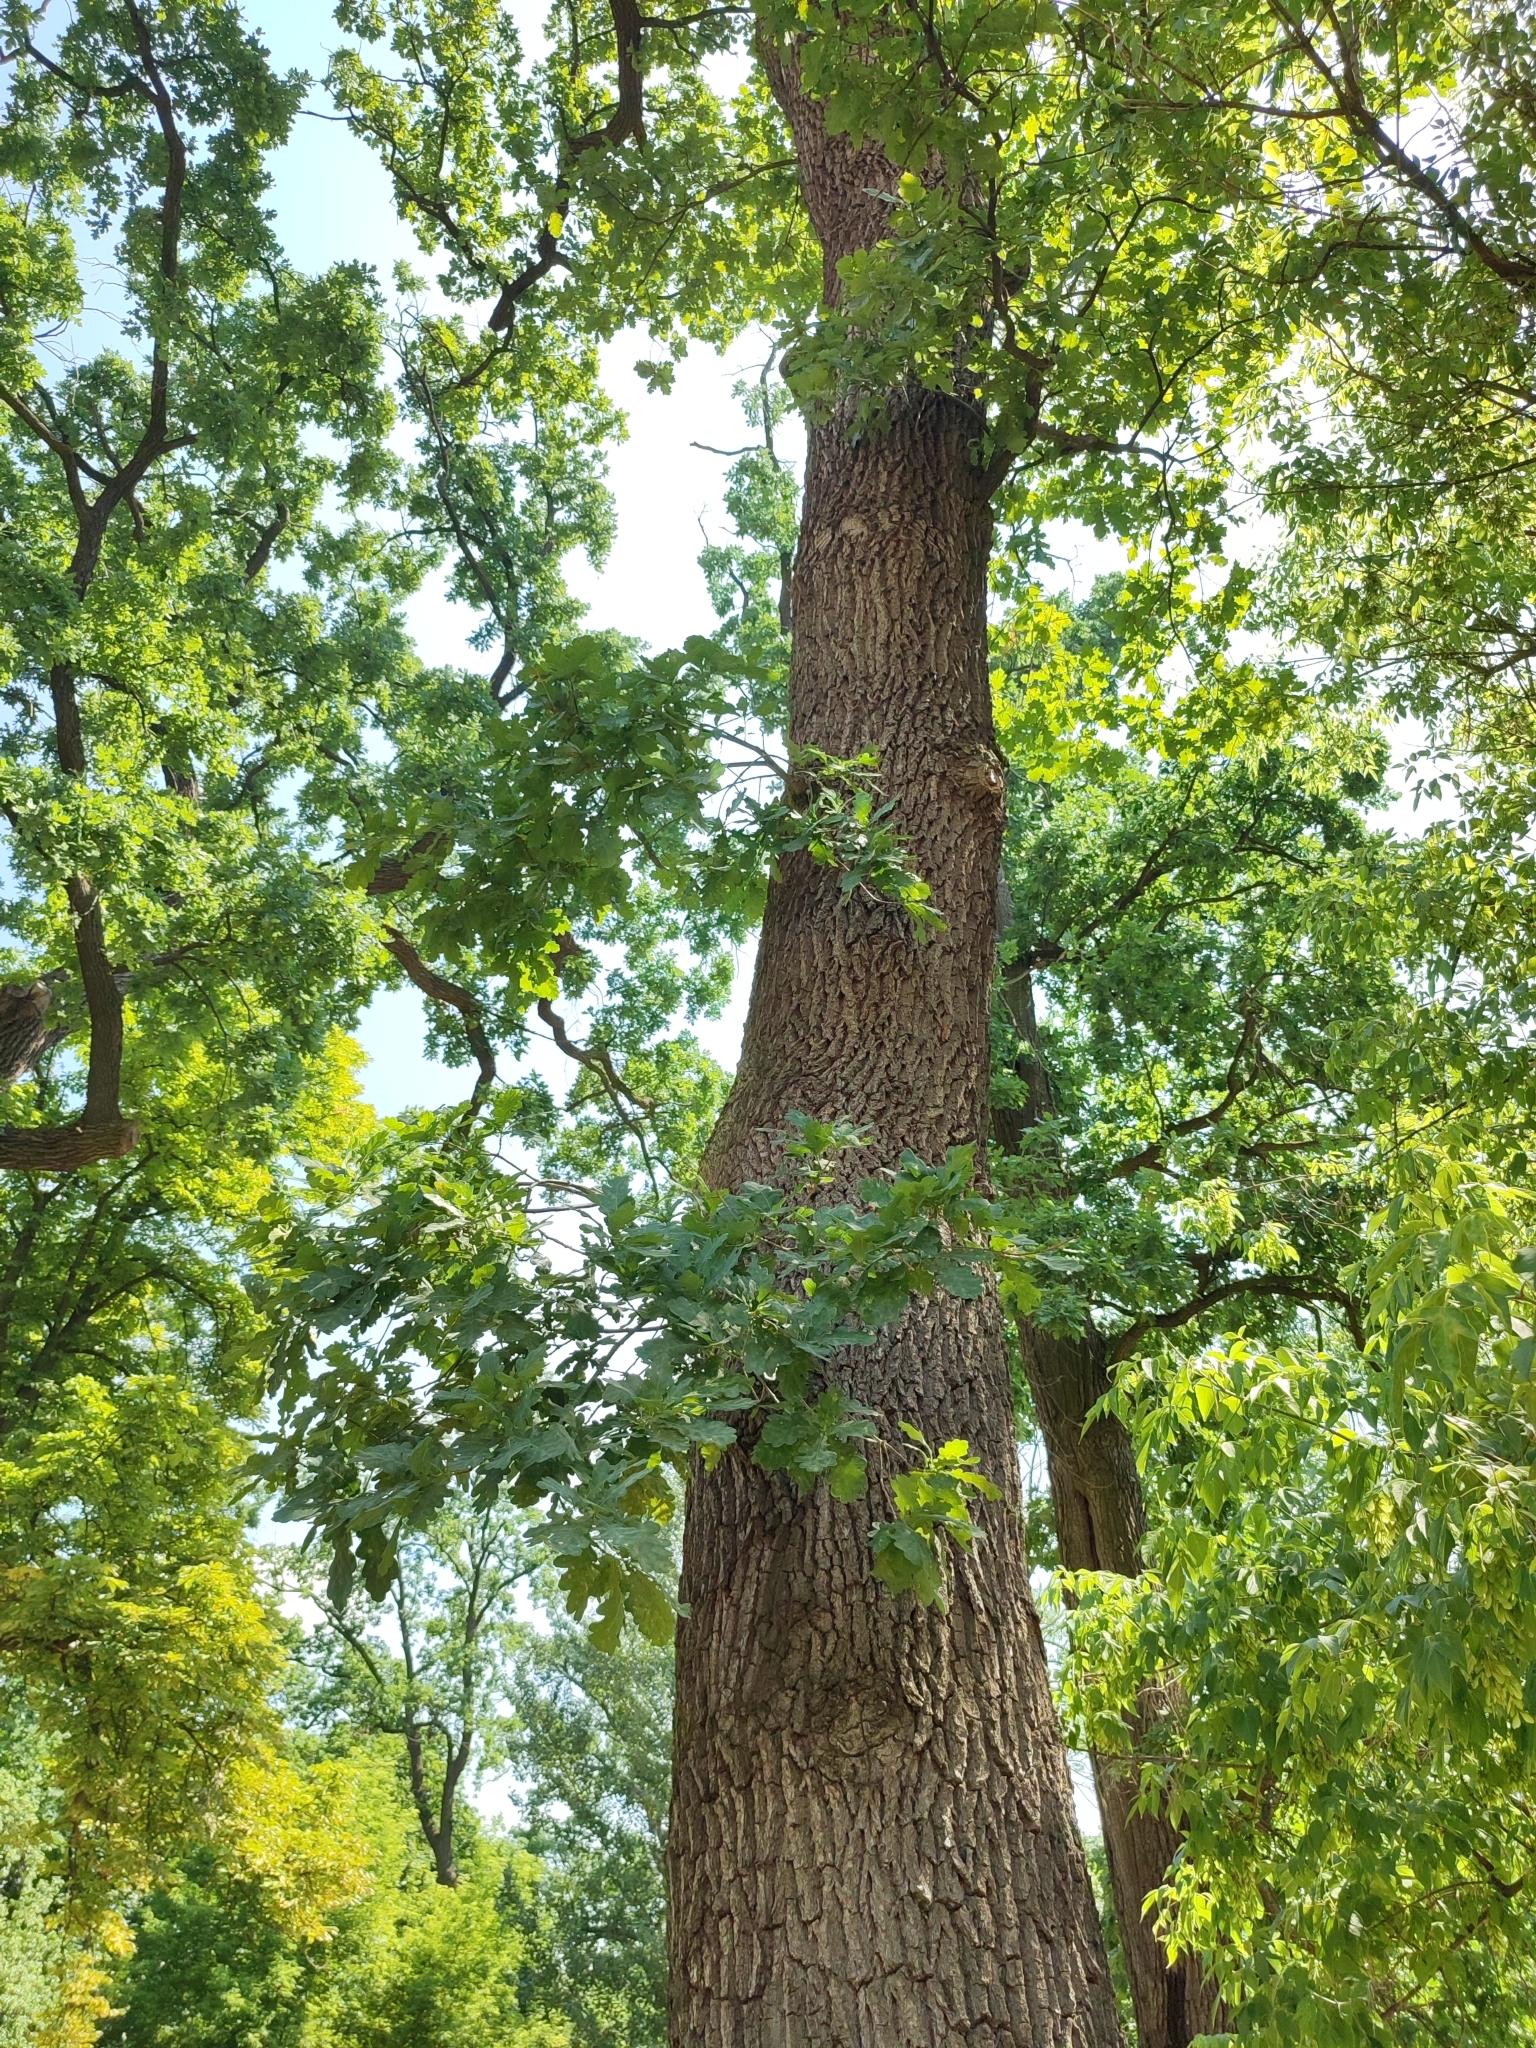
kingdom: Plantae
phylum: Tracheophyta
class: Magnoliopsida
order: Fagales
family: Fagaceae
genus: Quercus
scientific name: Quercus robur
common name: Pedunculate oak
